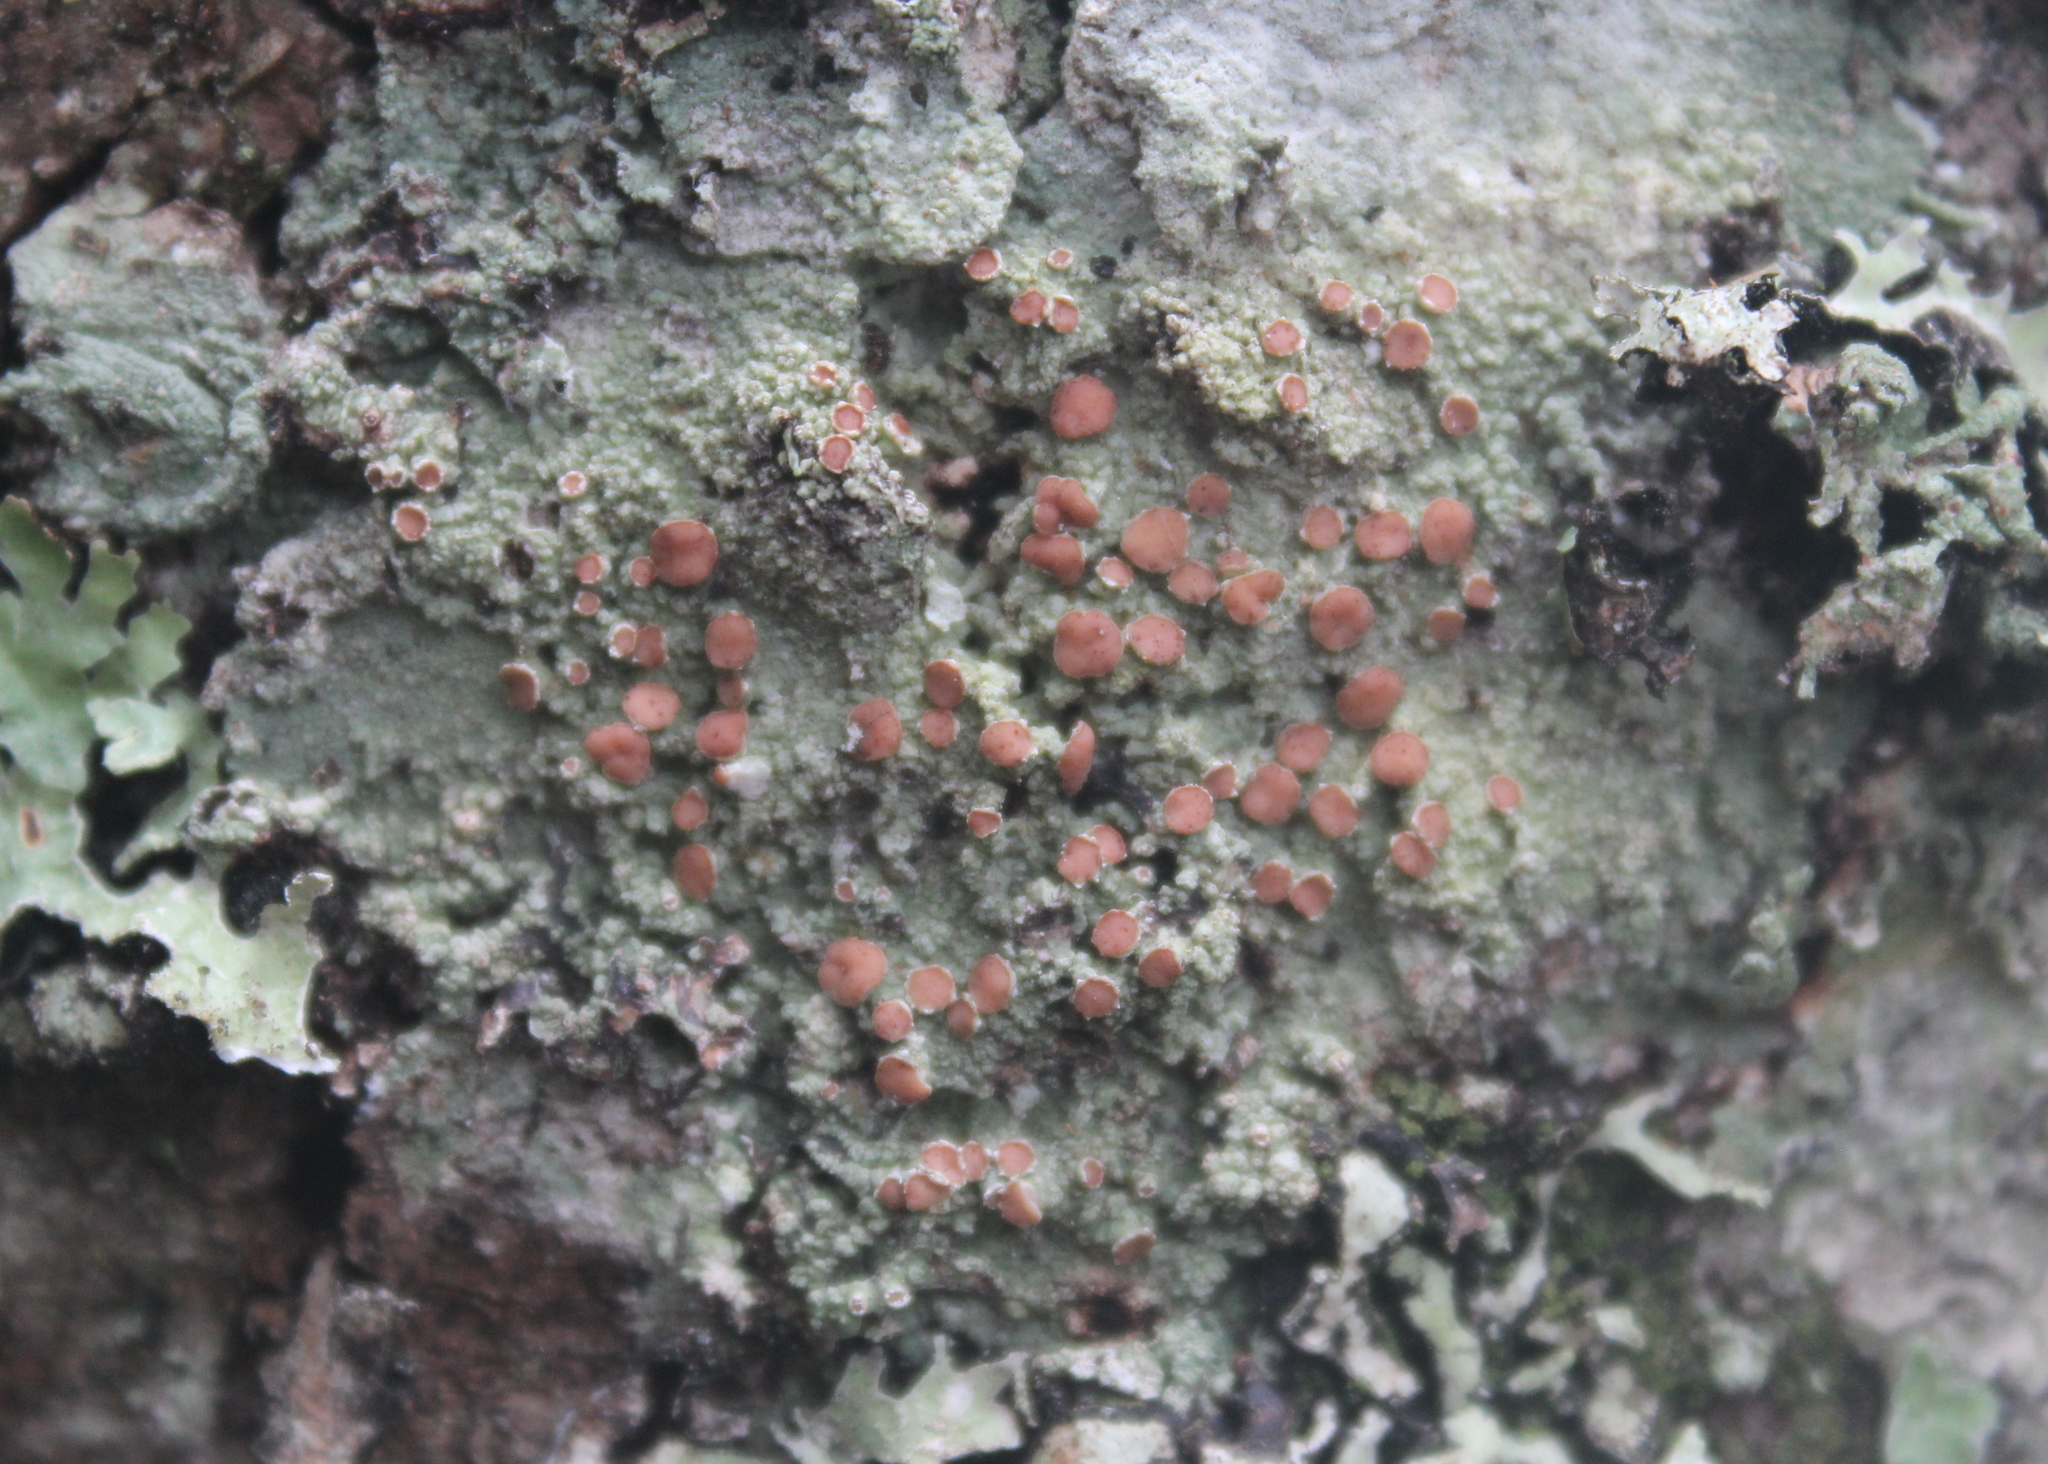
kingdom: Fungi
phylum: Ascomycota
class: Lecanoromycetes
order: Lecanorales
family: Sarrameanaceae
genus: Loxospora
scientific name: Loxospora ochrophaea
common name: Eastern ragged-rim lichen
